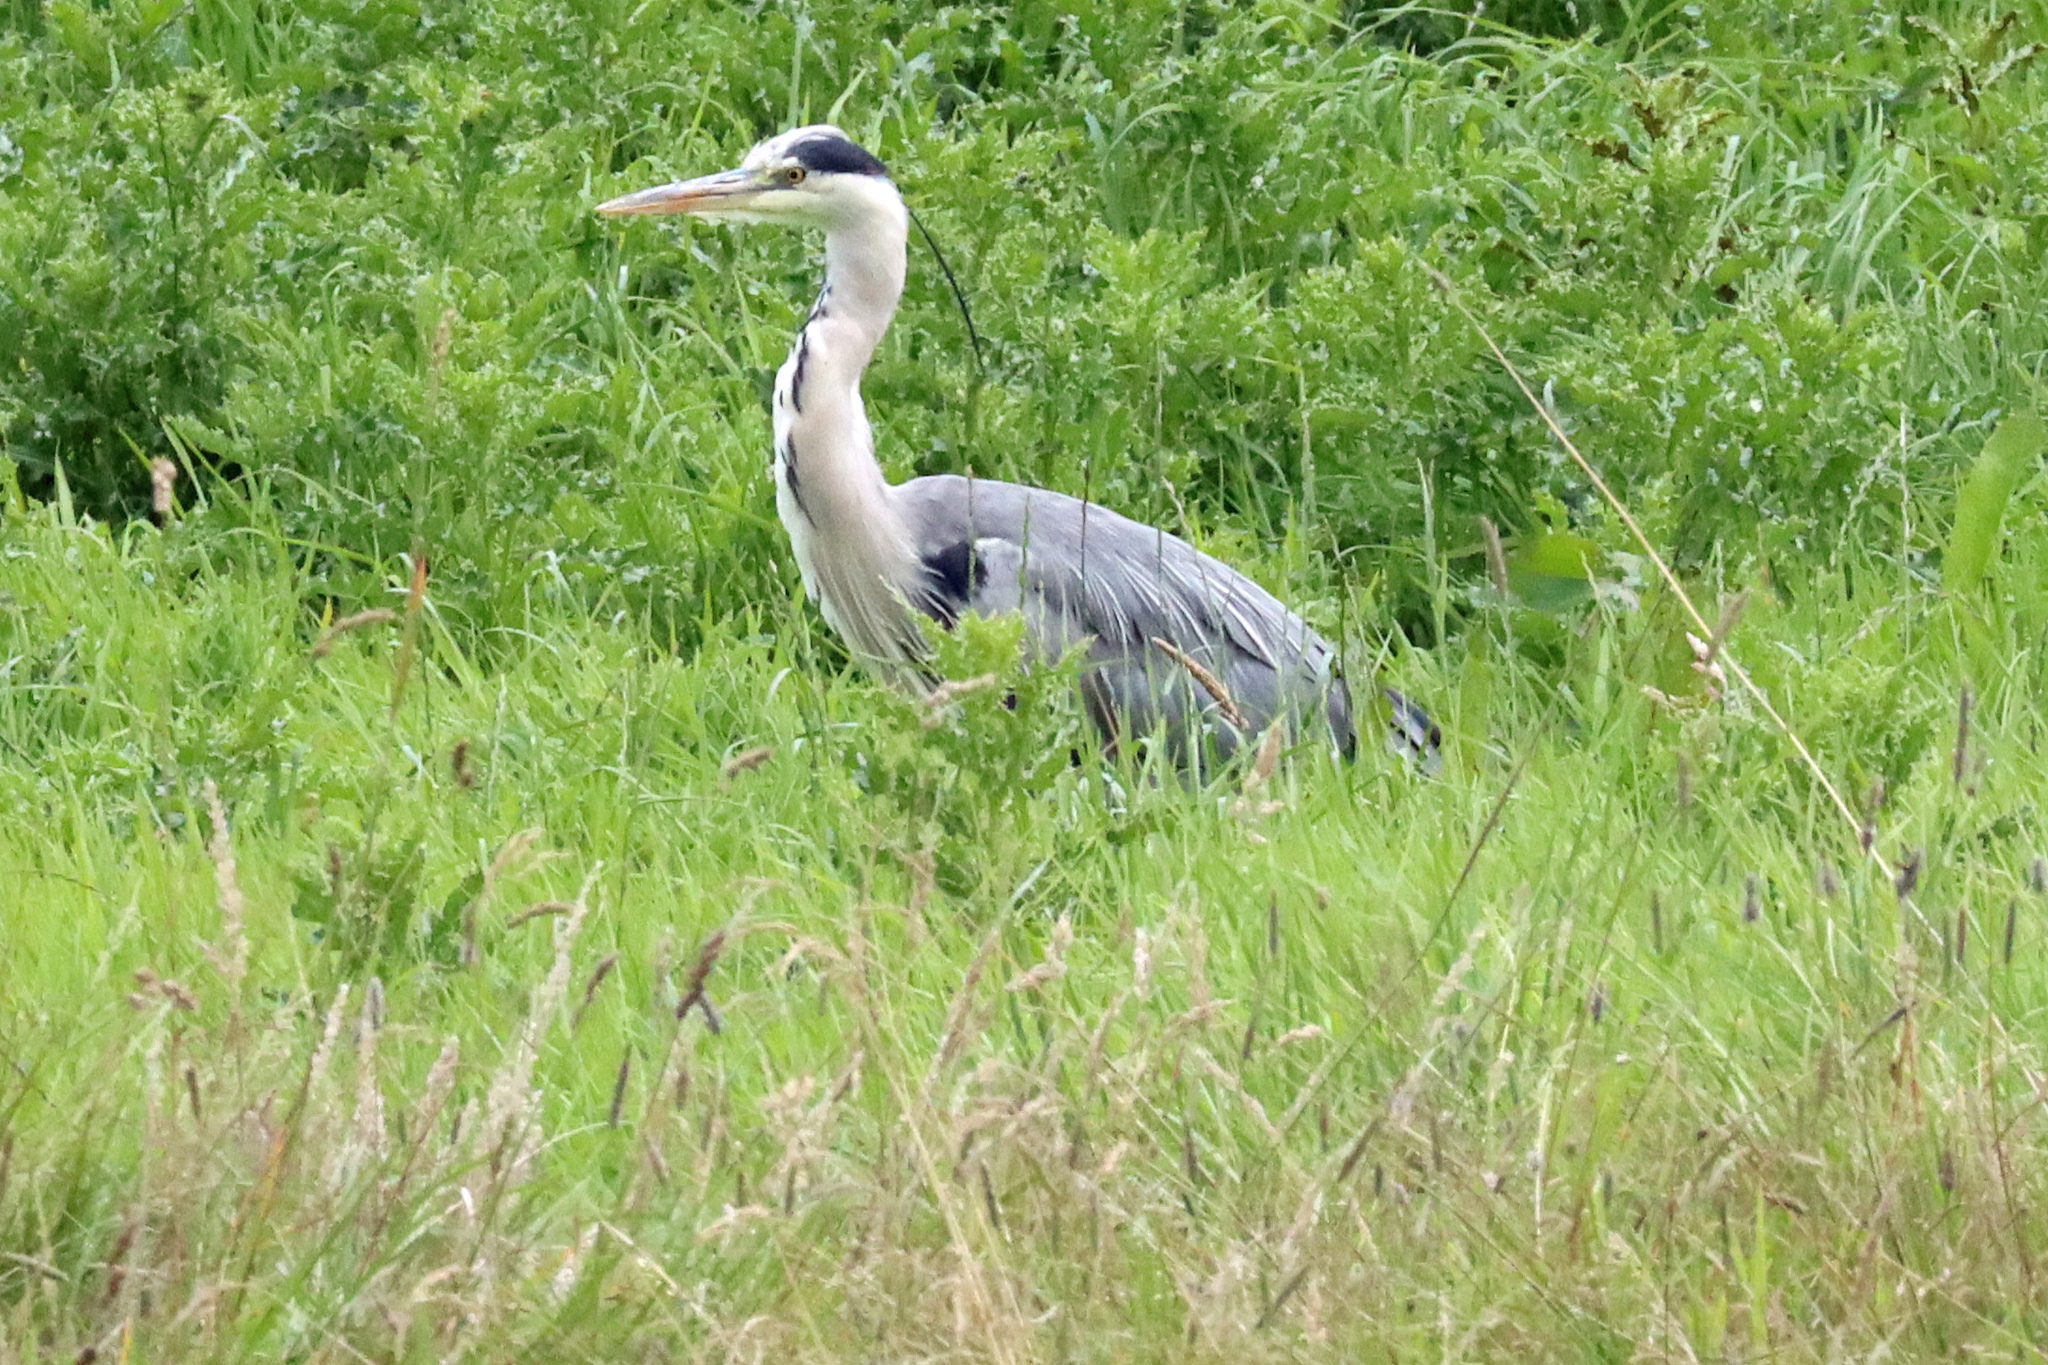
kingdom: Animalia
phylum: Chordata
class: Aves
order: Pelecaniformes
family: Ardeidae
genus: Ardea
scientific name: Ardea cinerea
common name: Grey heron
